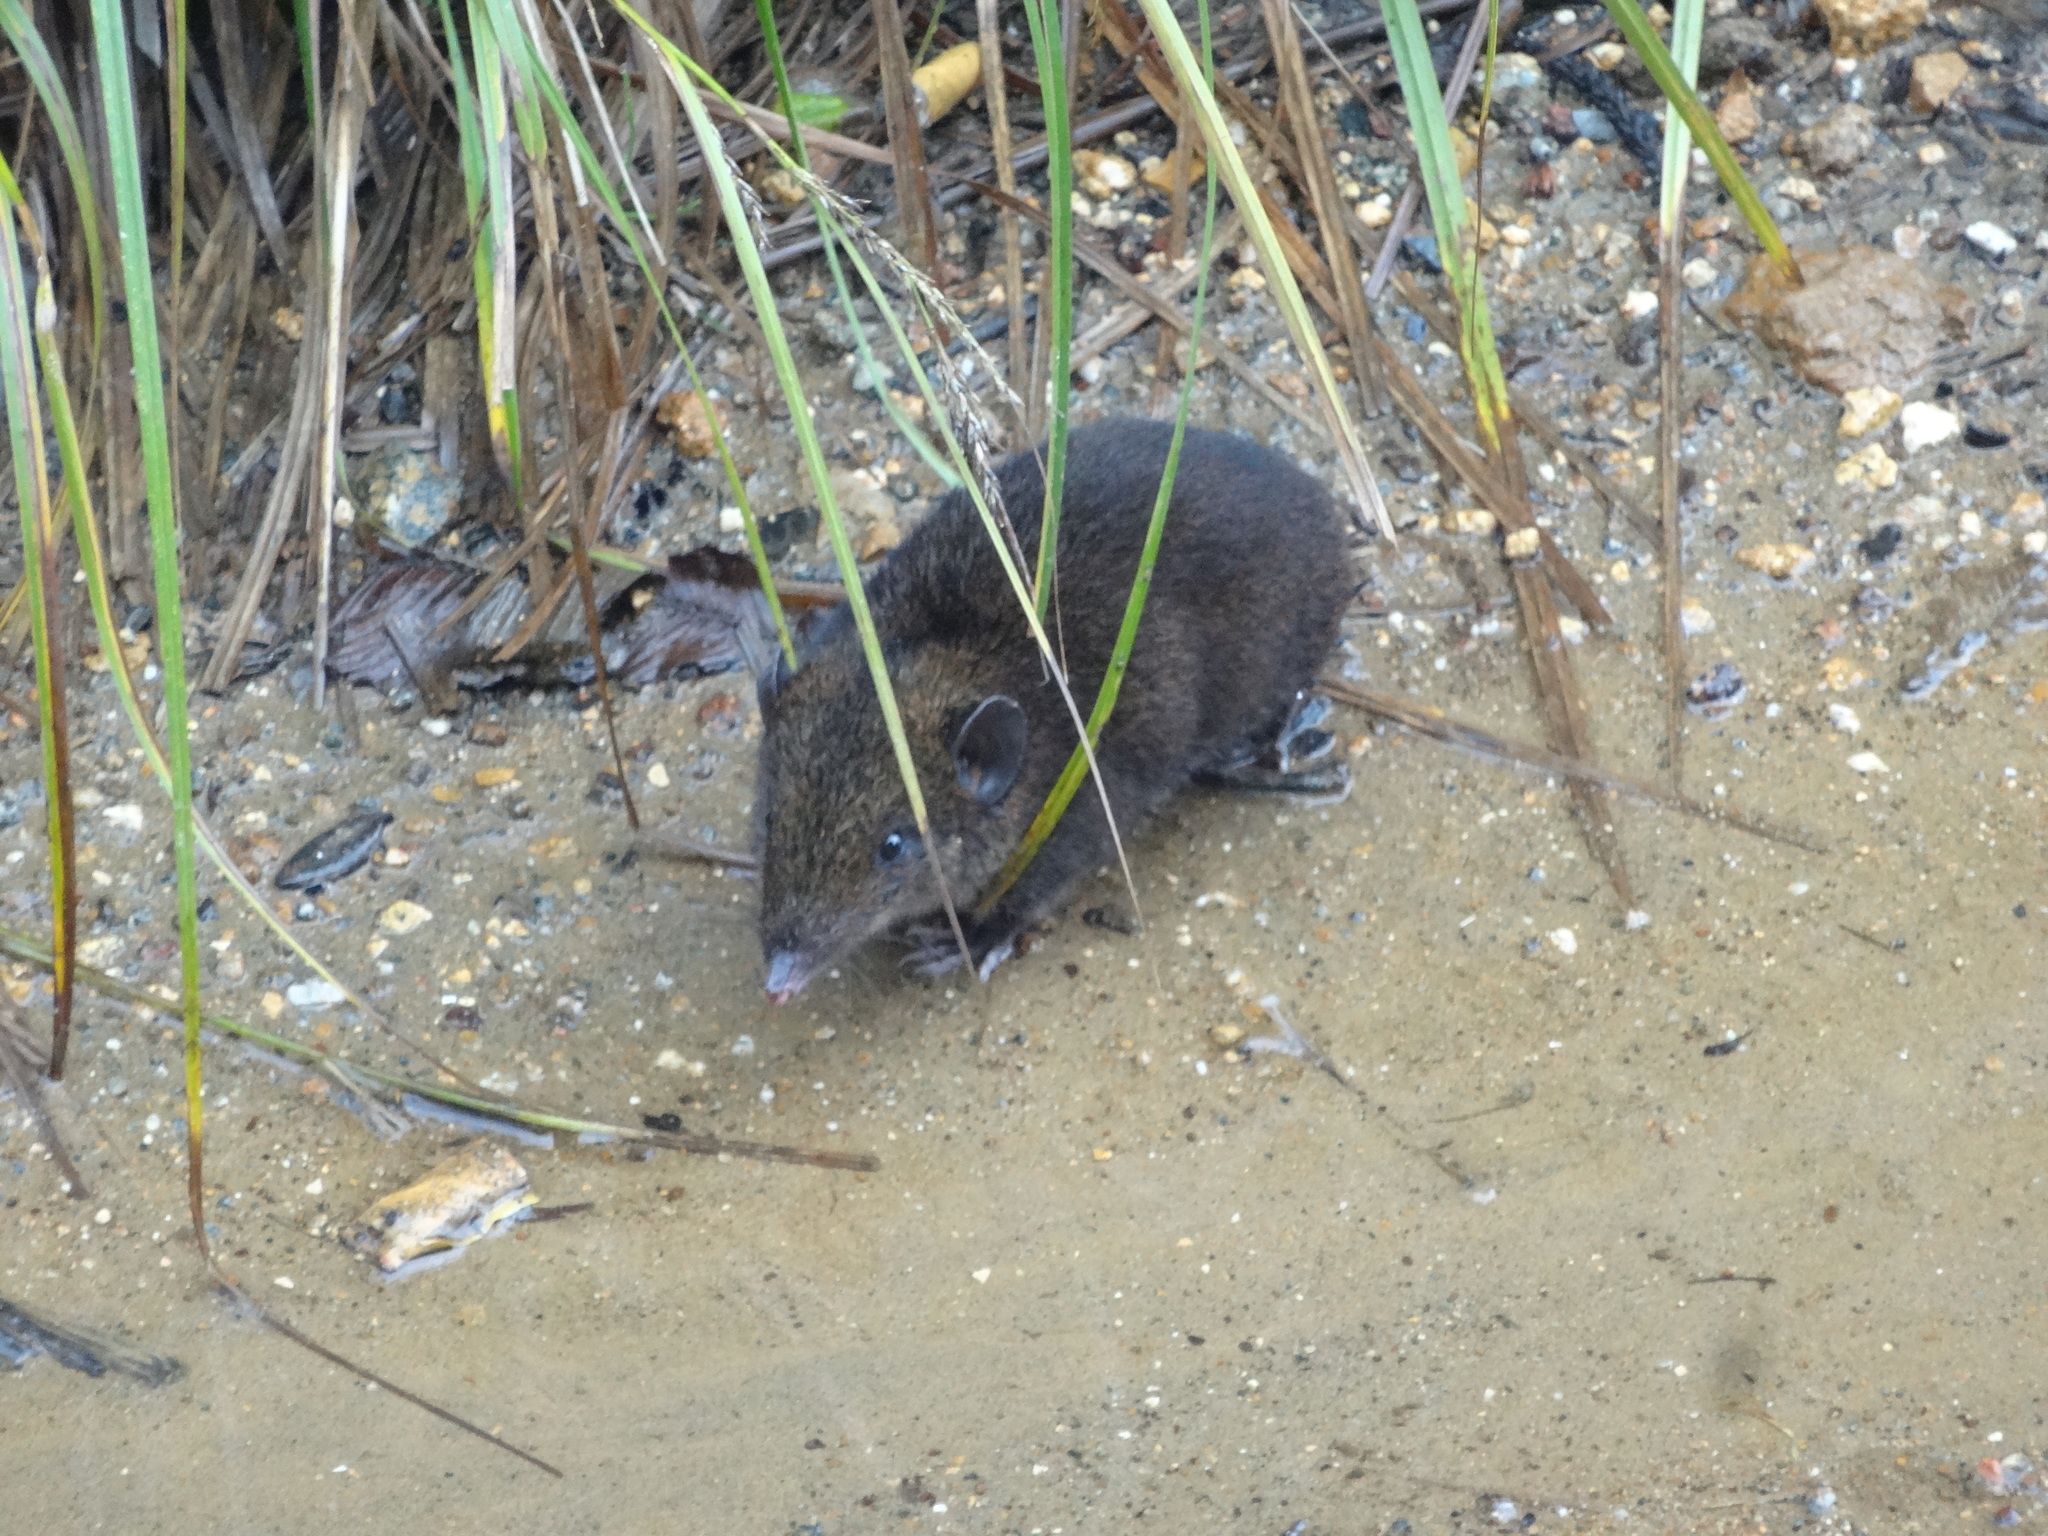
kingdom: Animalia
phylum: Chordata
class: Mammalia
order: Erinaceomorpha
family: Erinaceidae
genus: Hylomys
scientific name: Hylomys suillus
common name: Short-tailed gymnure
